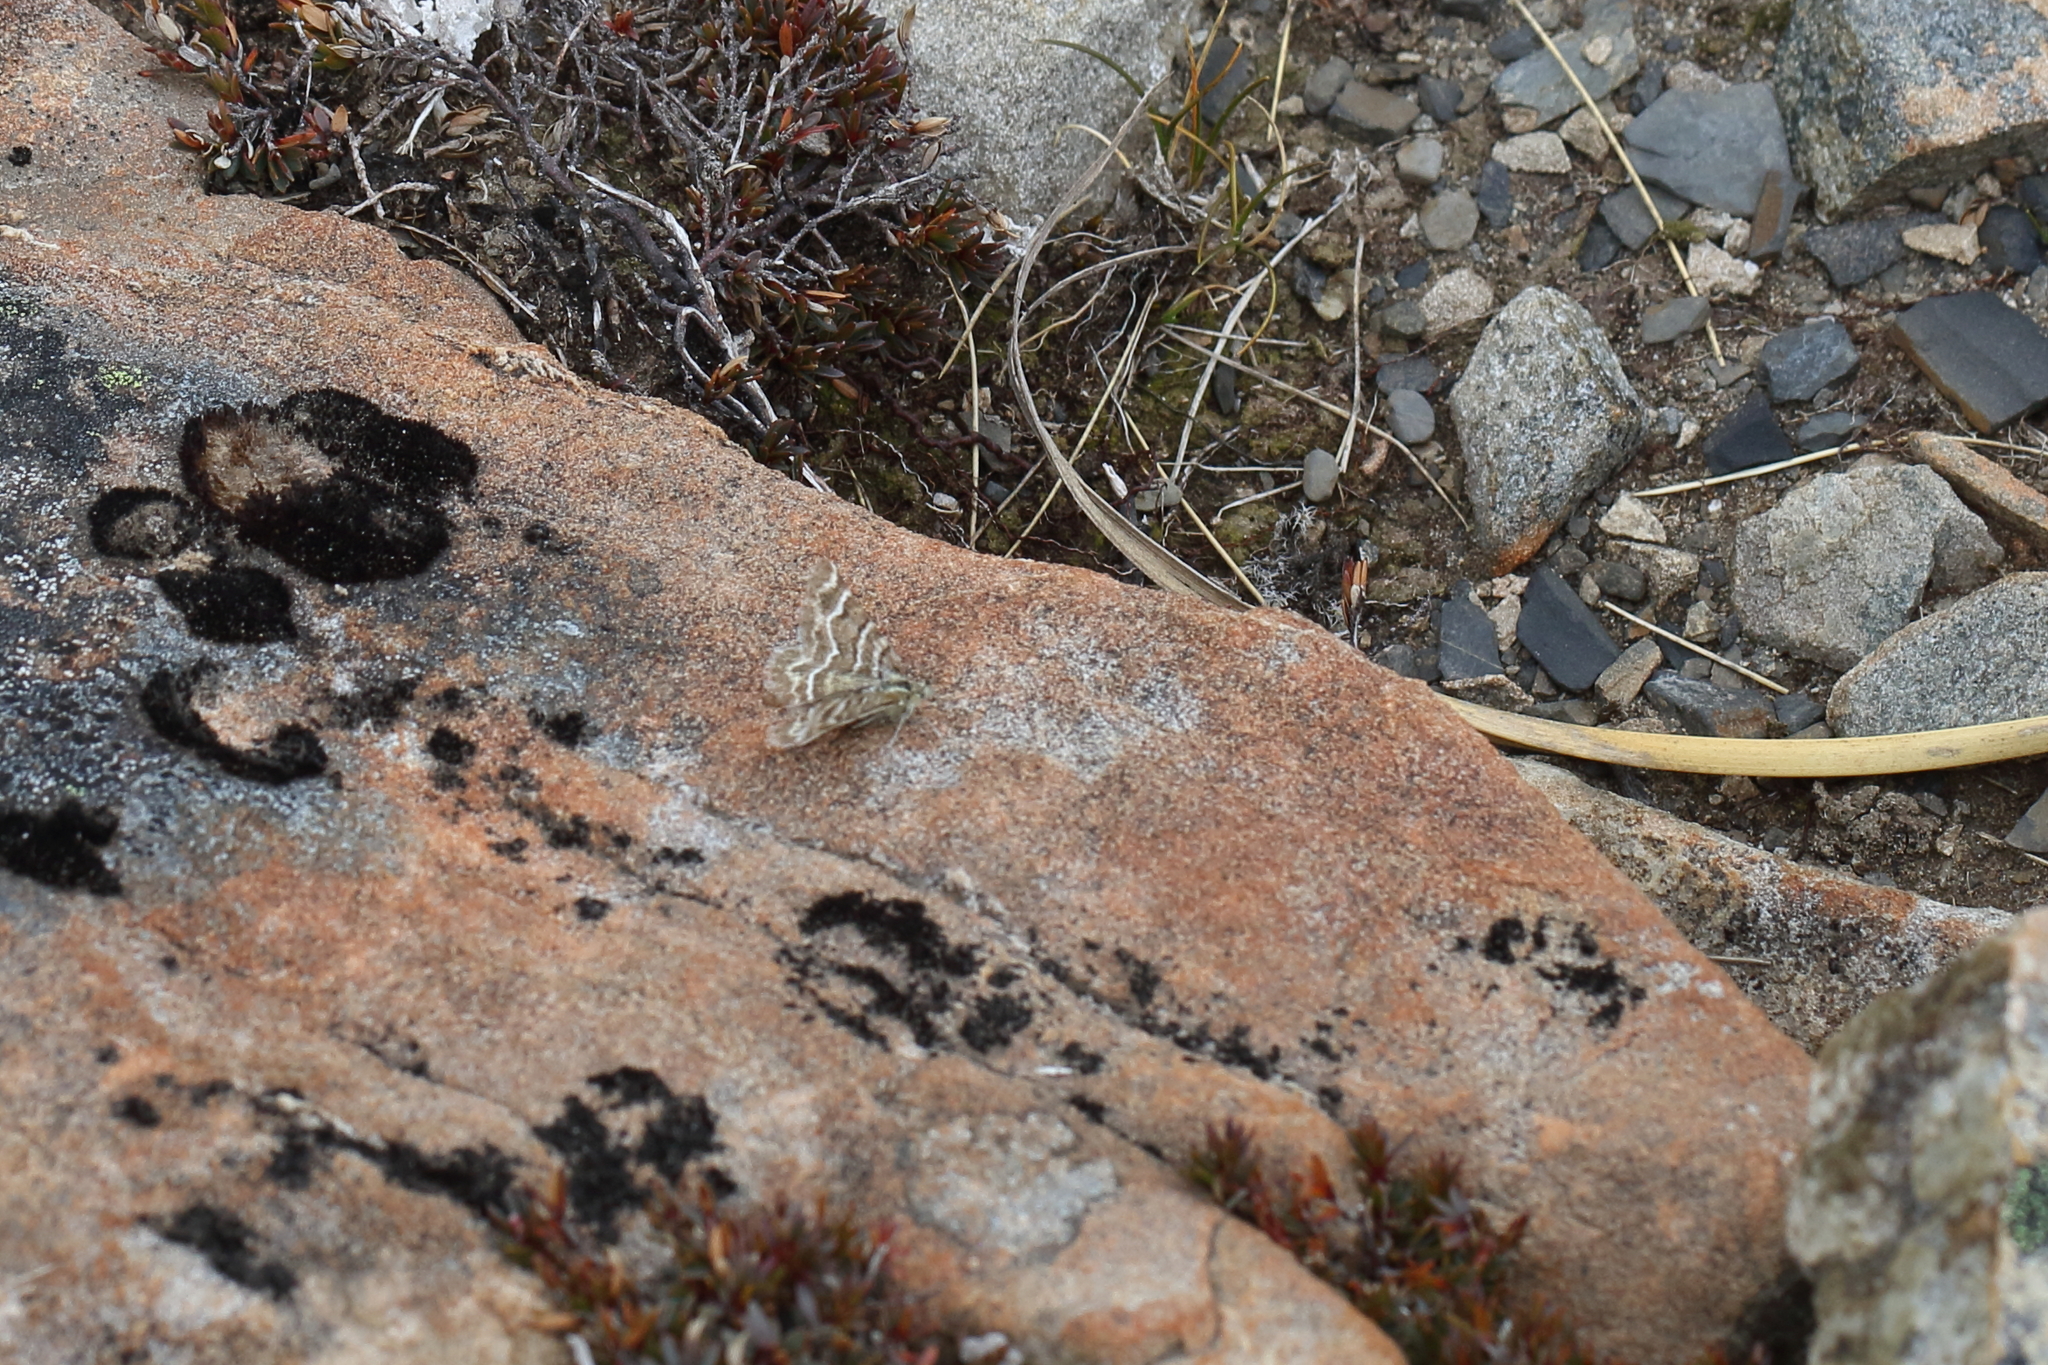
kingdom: Animalia
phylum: Arthropoda
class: Insecta
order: Lepidoptera
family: Geometridae
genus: Notoreas
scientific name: Notoreas paradelpha
